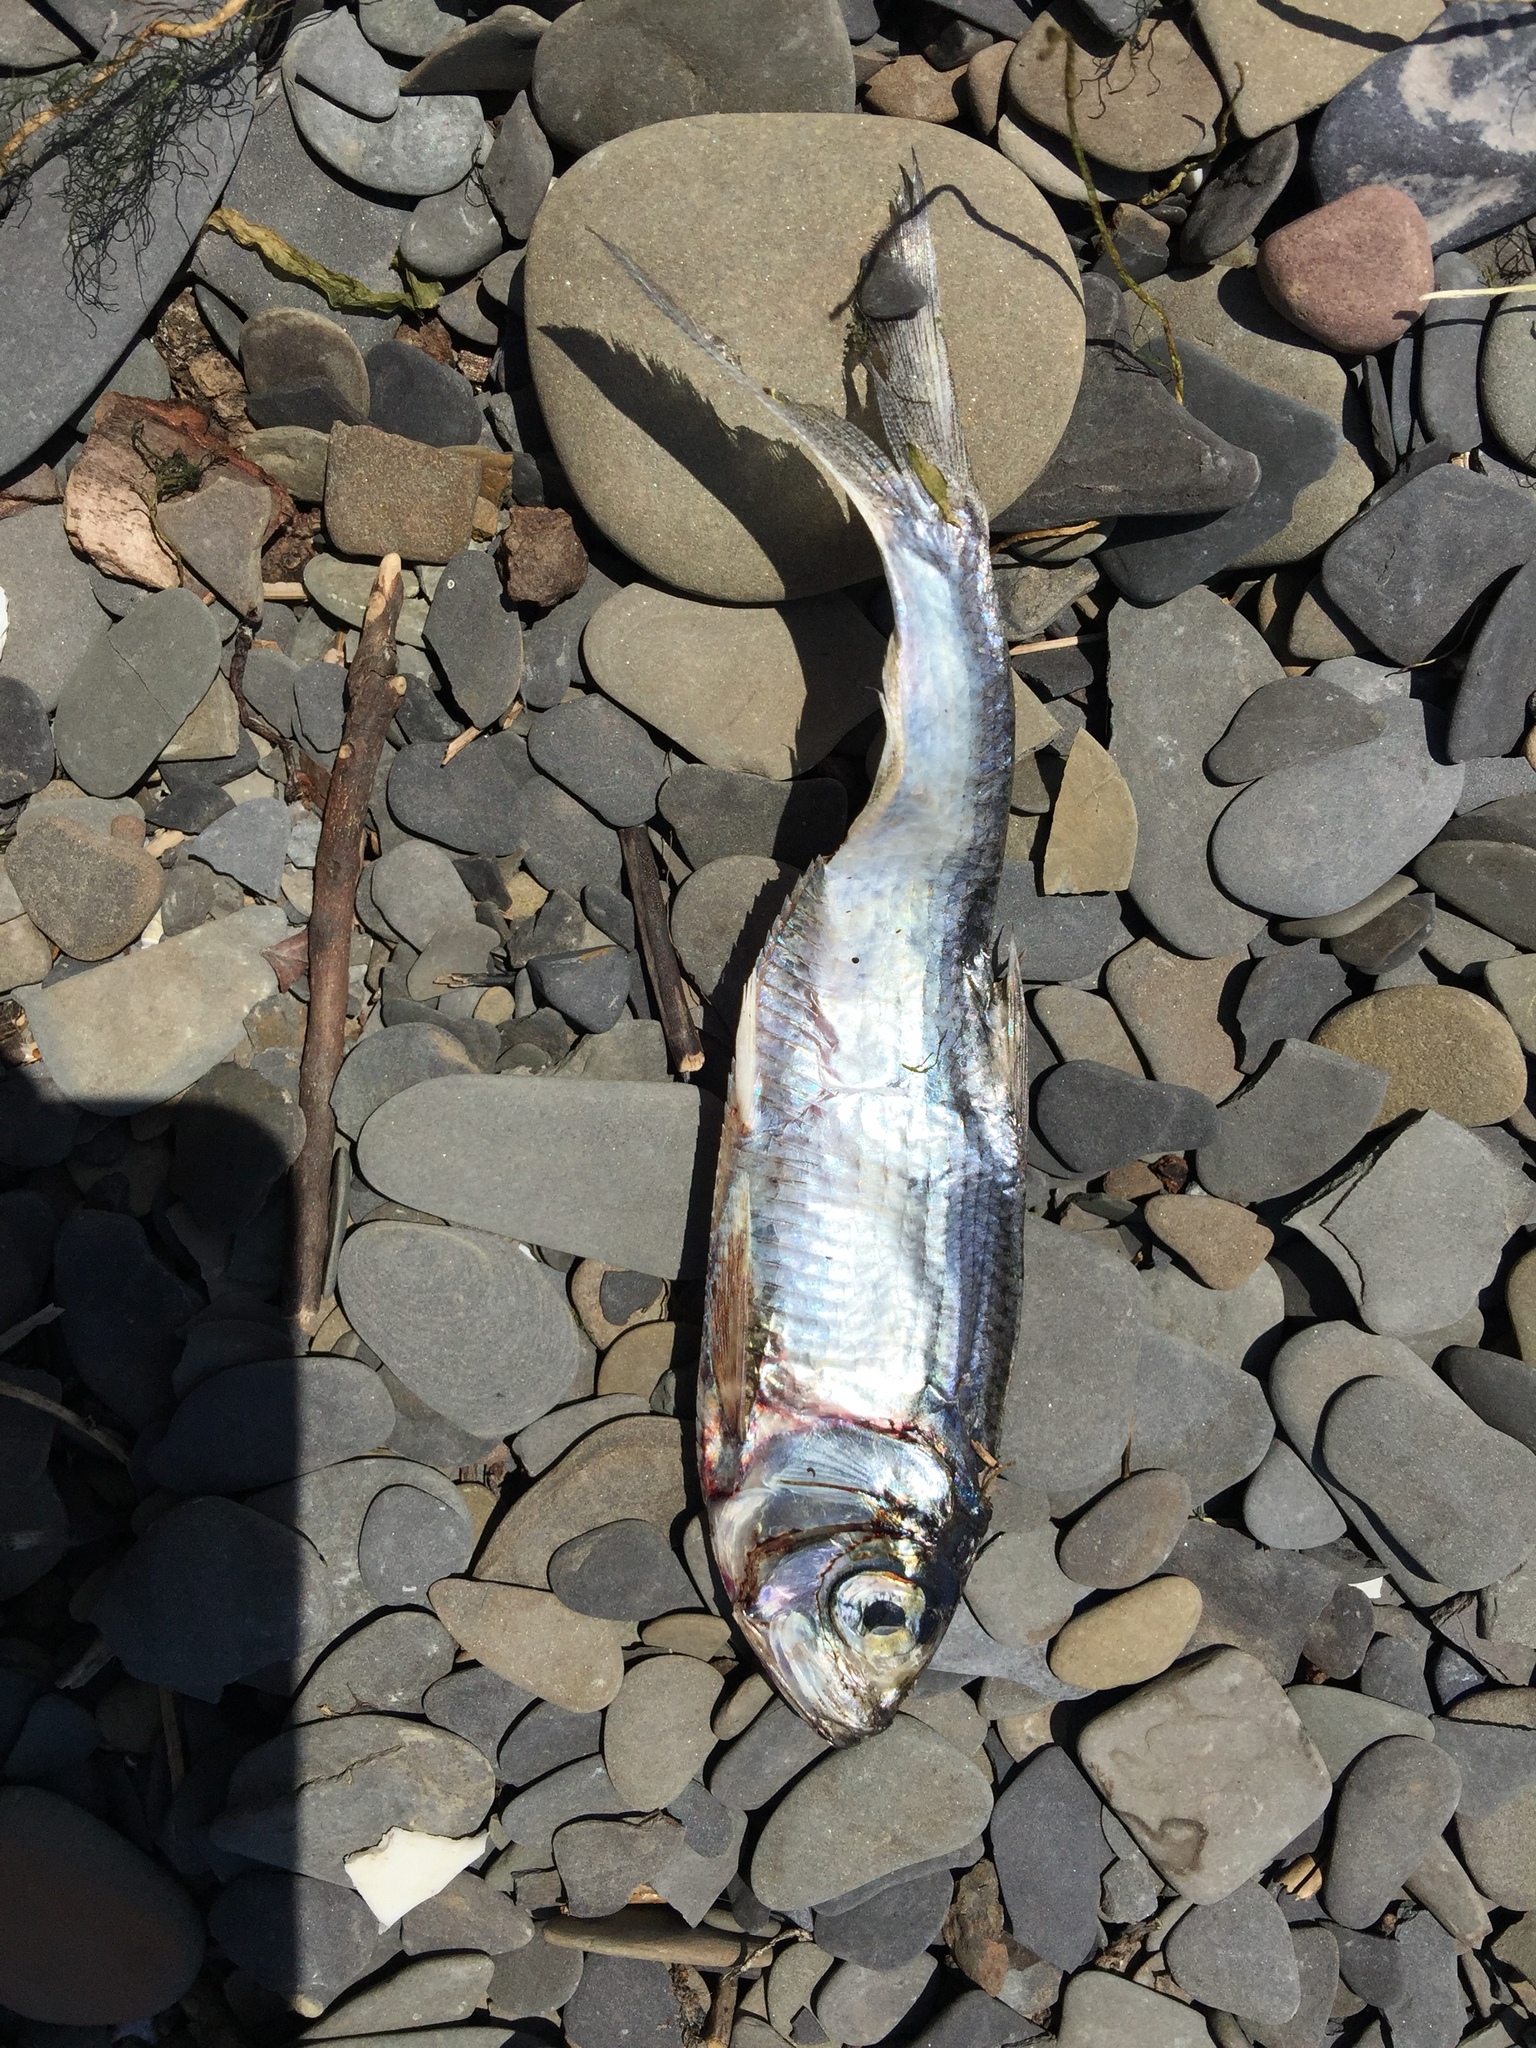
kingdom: Animalia
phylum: Chordata
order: Clupeiformes
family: Clupeidae
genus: Alosa
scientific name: Alosa pseudoharengus
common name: Alewife
